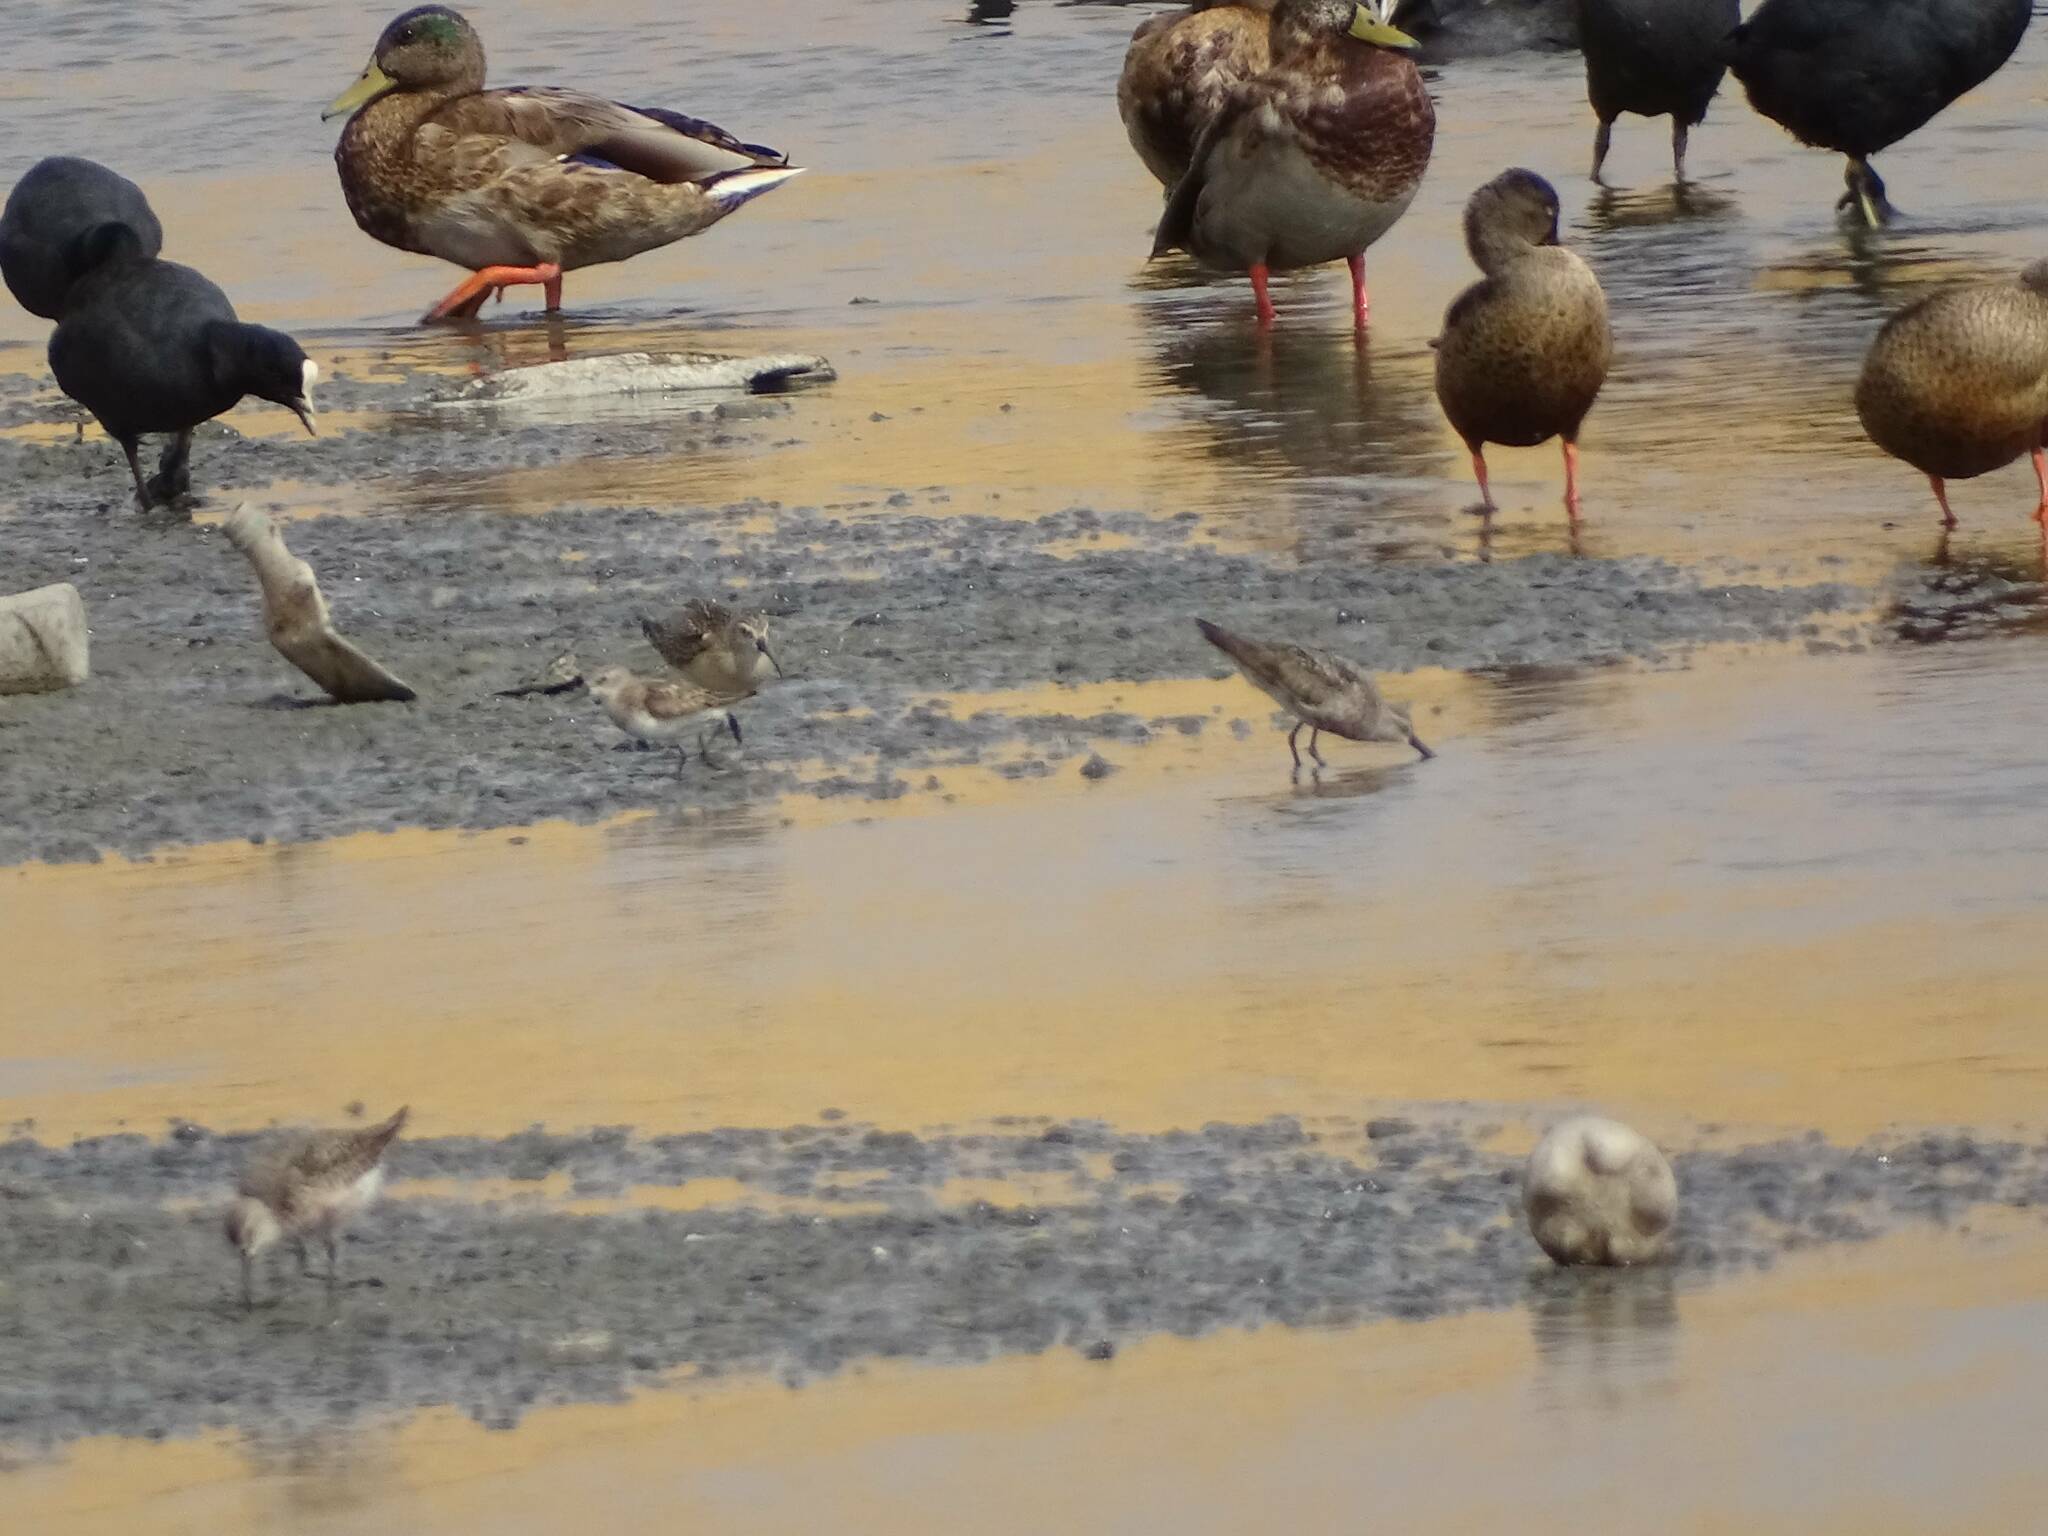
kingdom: Animalia
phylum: Chordata
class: Aves
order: Charadriiformes
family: Scolopacidae
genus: Calidris
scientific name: Calidris ferruginea
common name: Curlew sandpiper
